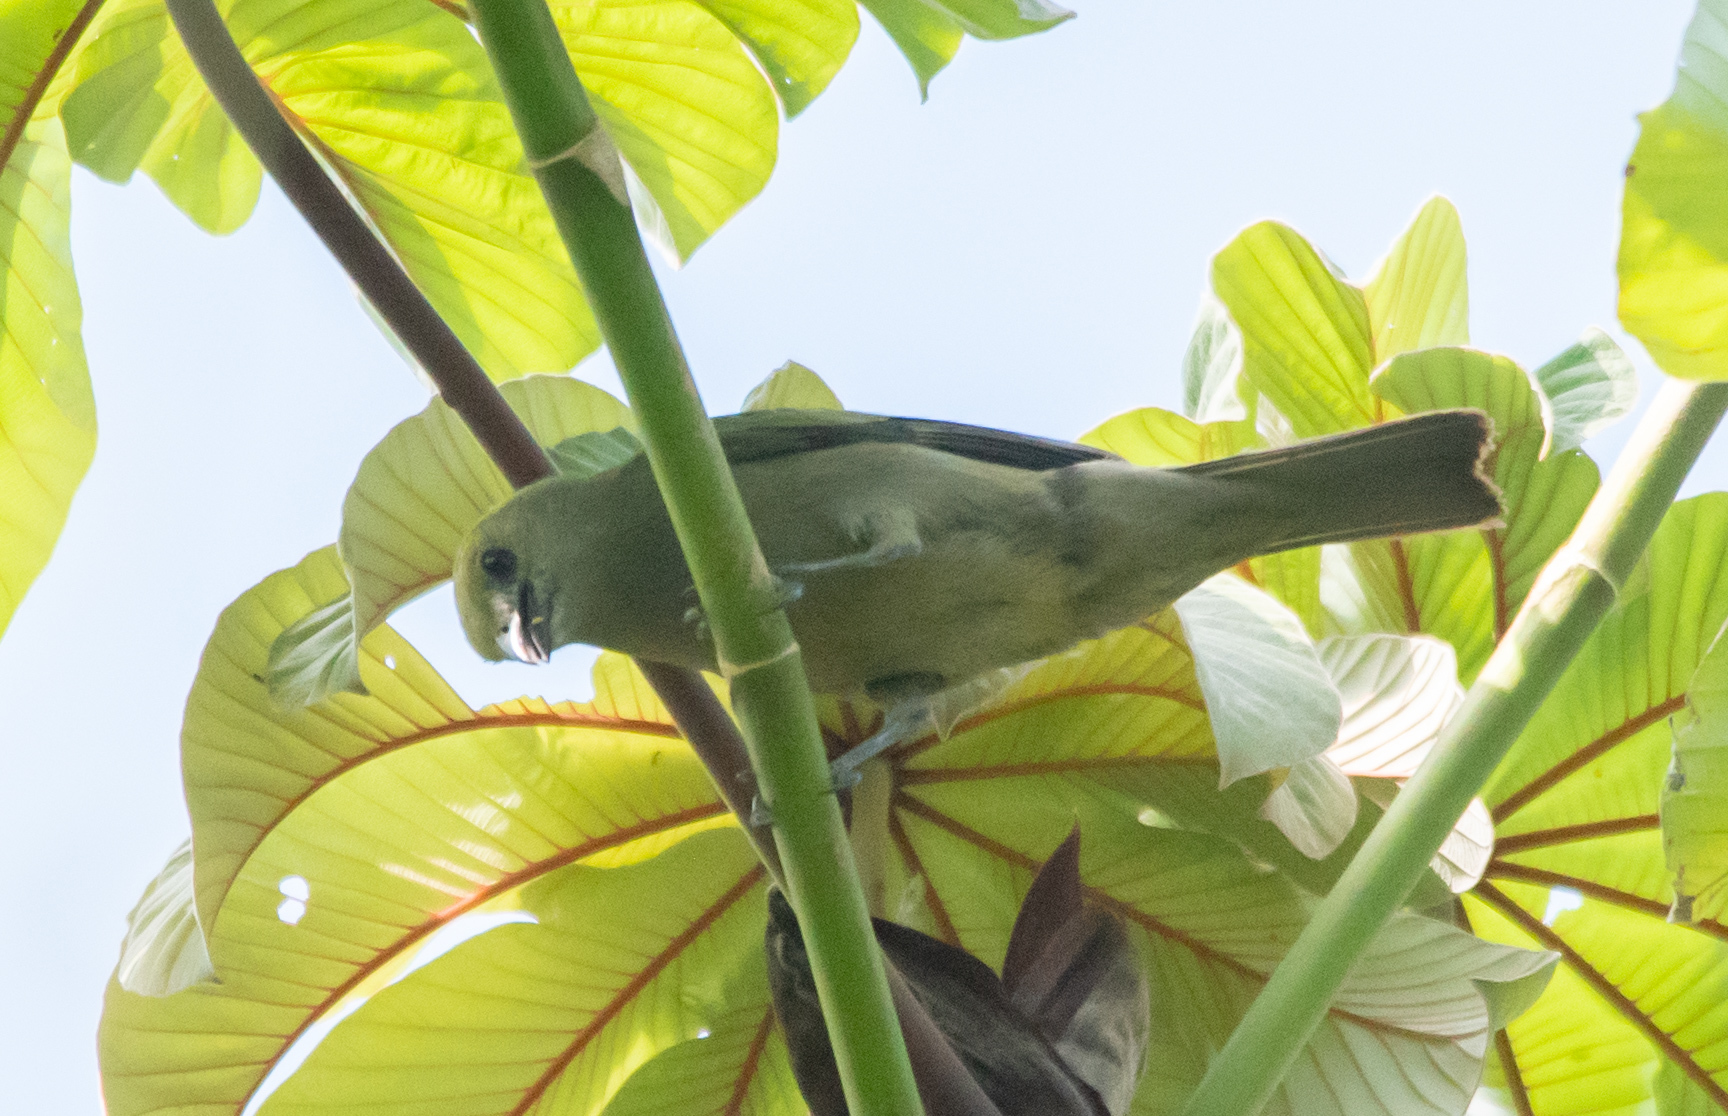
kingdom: Animalia
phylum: Chordata
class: Aves
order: Passeriformes
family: Thraupidae
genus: Thraupis
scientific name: Thraupis palmarum
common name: Palm tanager
